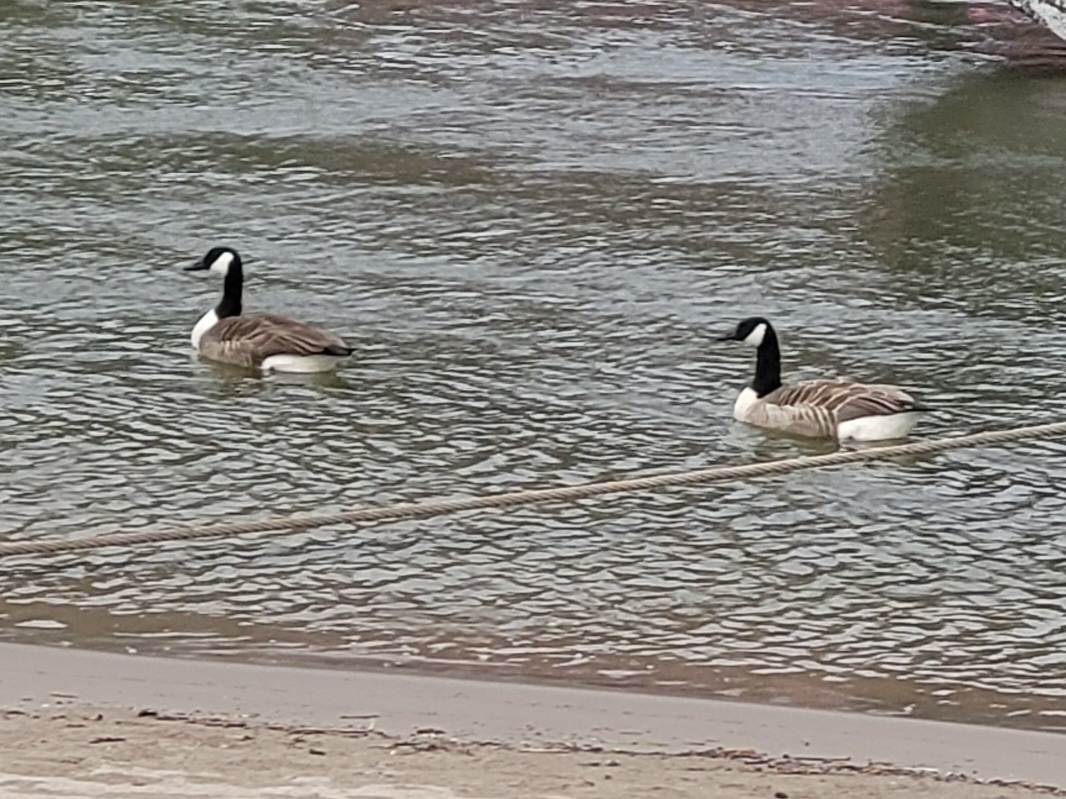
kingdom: Animalia
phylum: Chordata
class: Aves
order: Anseriformes
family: Anatidae
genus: Branta
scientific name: Branta canadensis
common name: Canada goose
